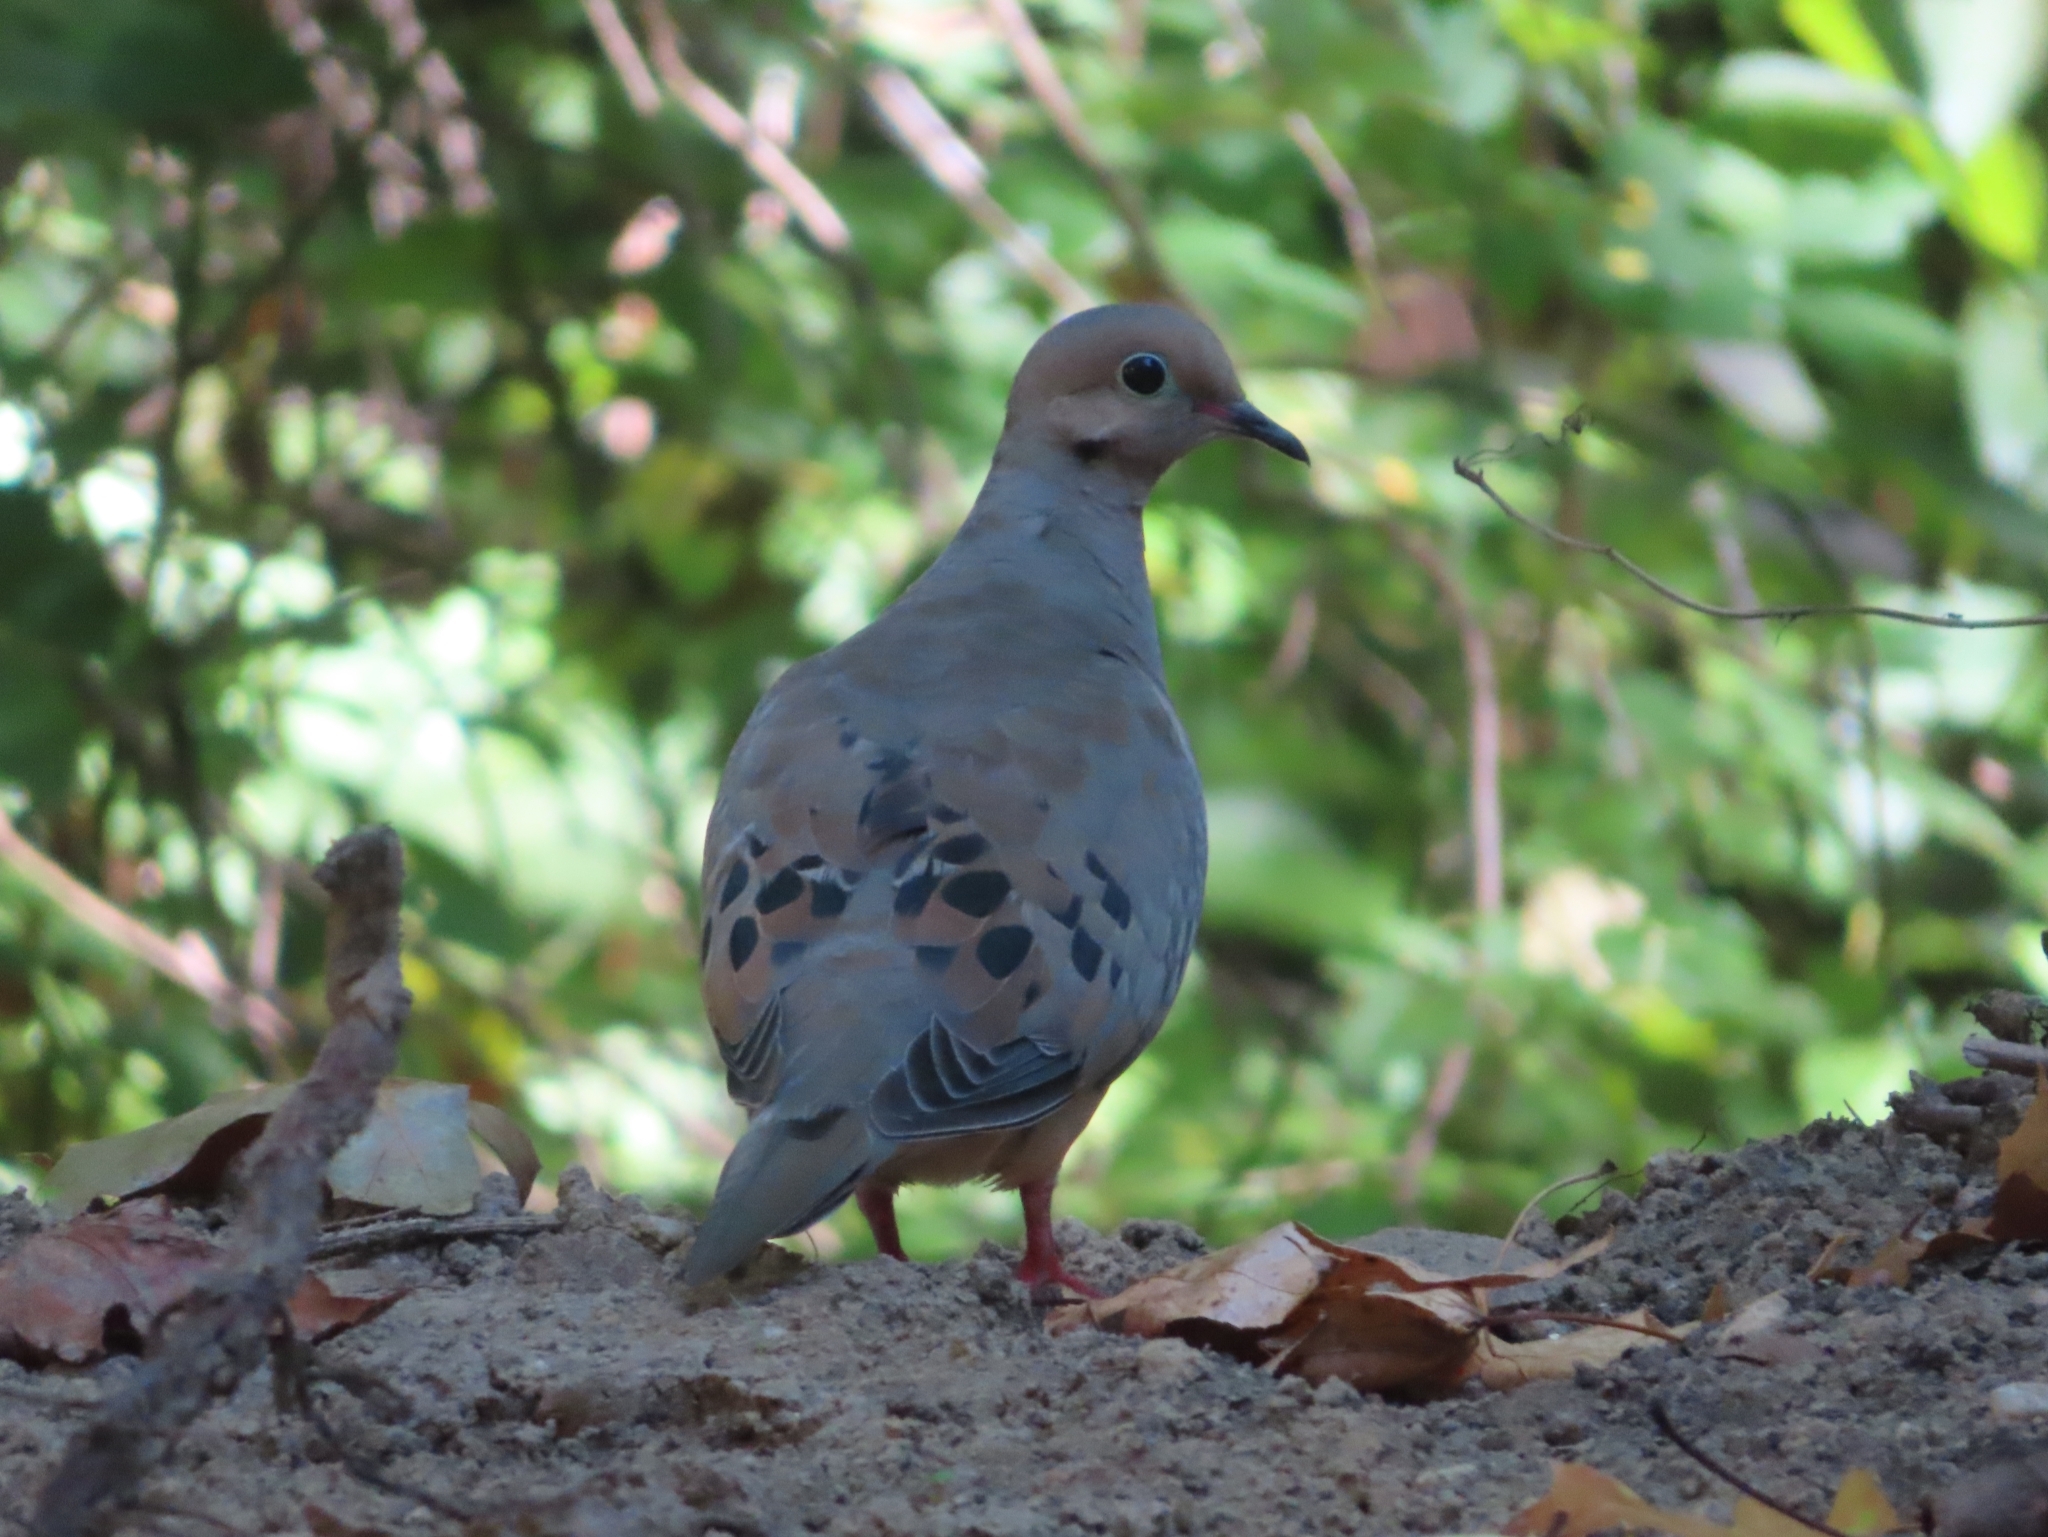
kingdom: Animalia
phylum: Chordata
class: Aves
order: Columbiformes
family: Columbidae
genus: Zenaida
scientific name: Zenaida macroura
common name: Mourning dove
